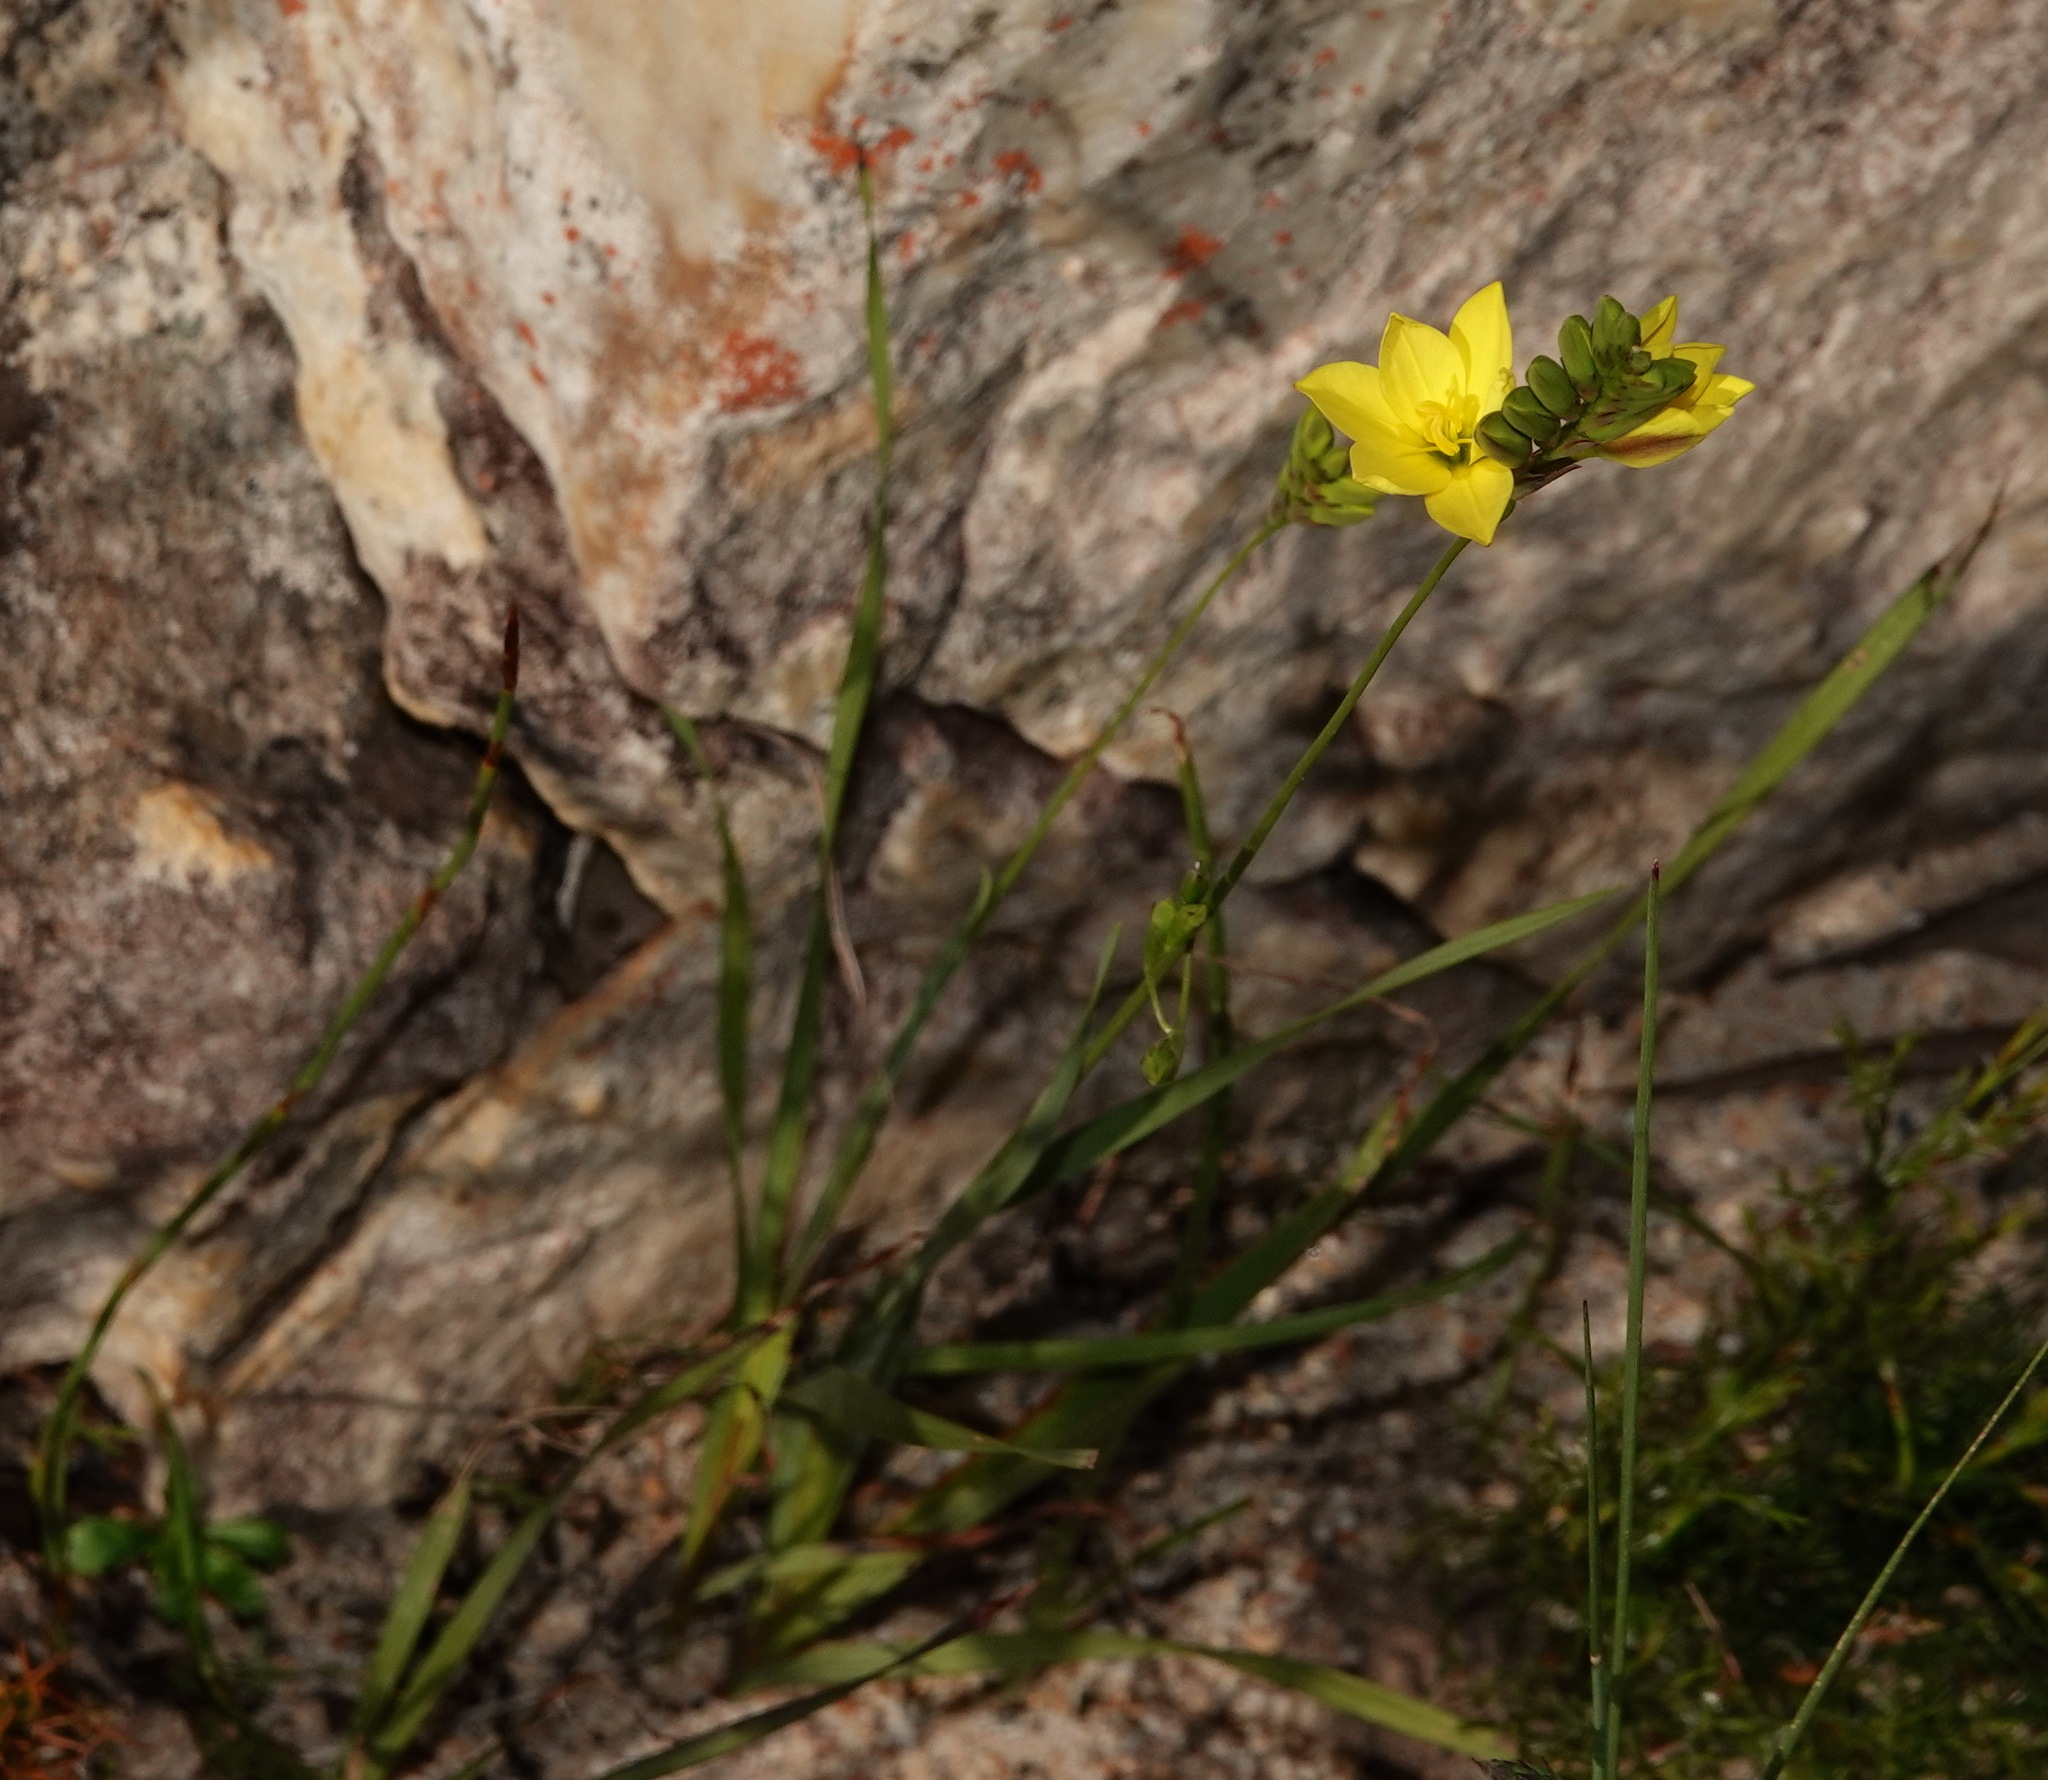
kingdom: Plantae
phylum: Tracheophyta
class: Liliopsida
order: Asparagales
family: Iridaceae
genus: Ixia
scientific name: Ixia odorata
